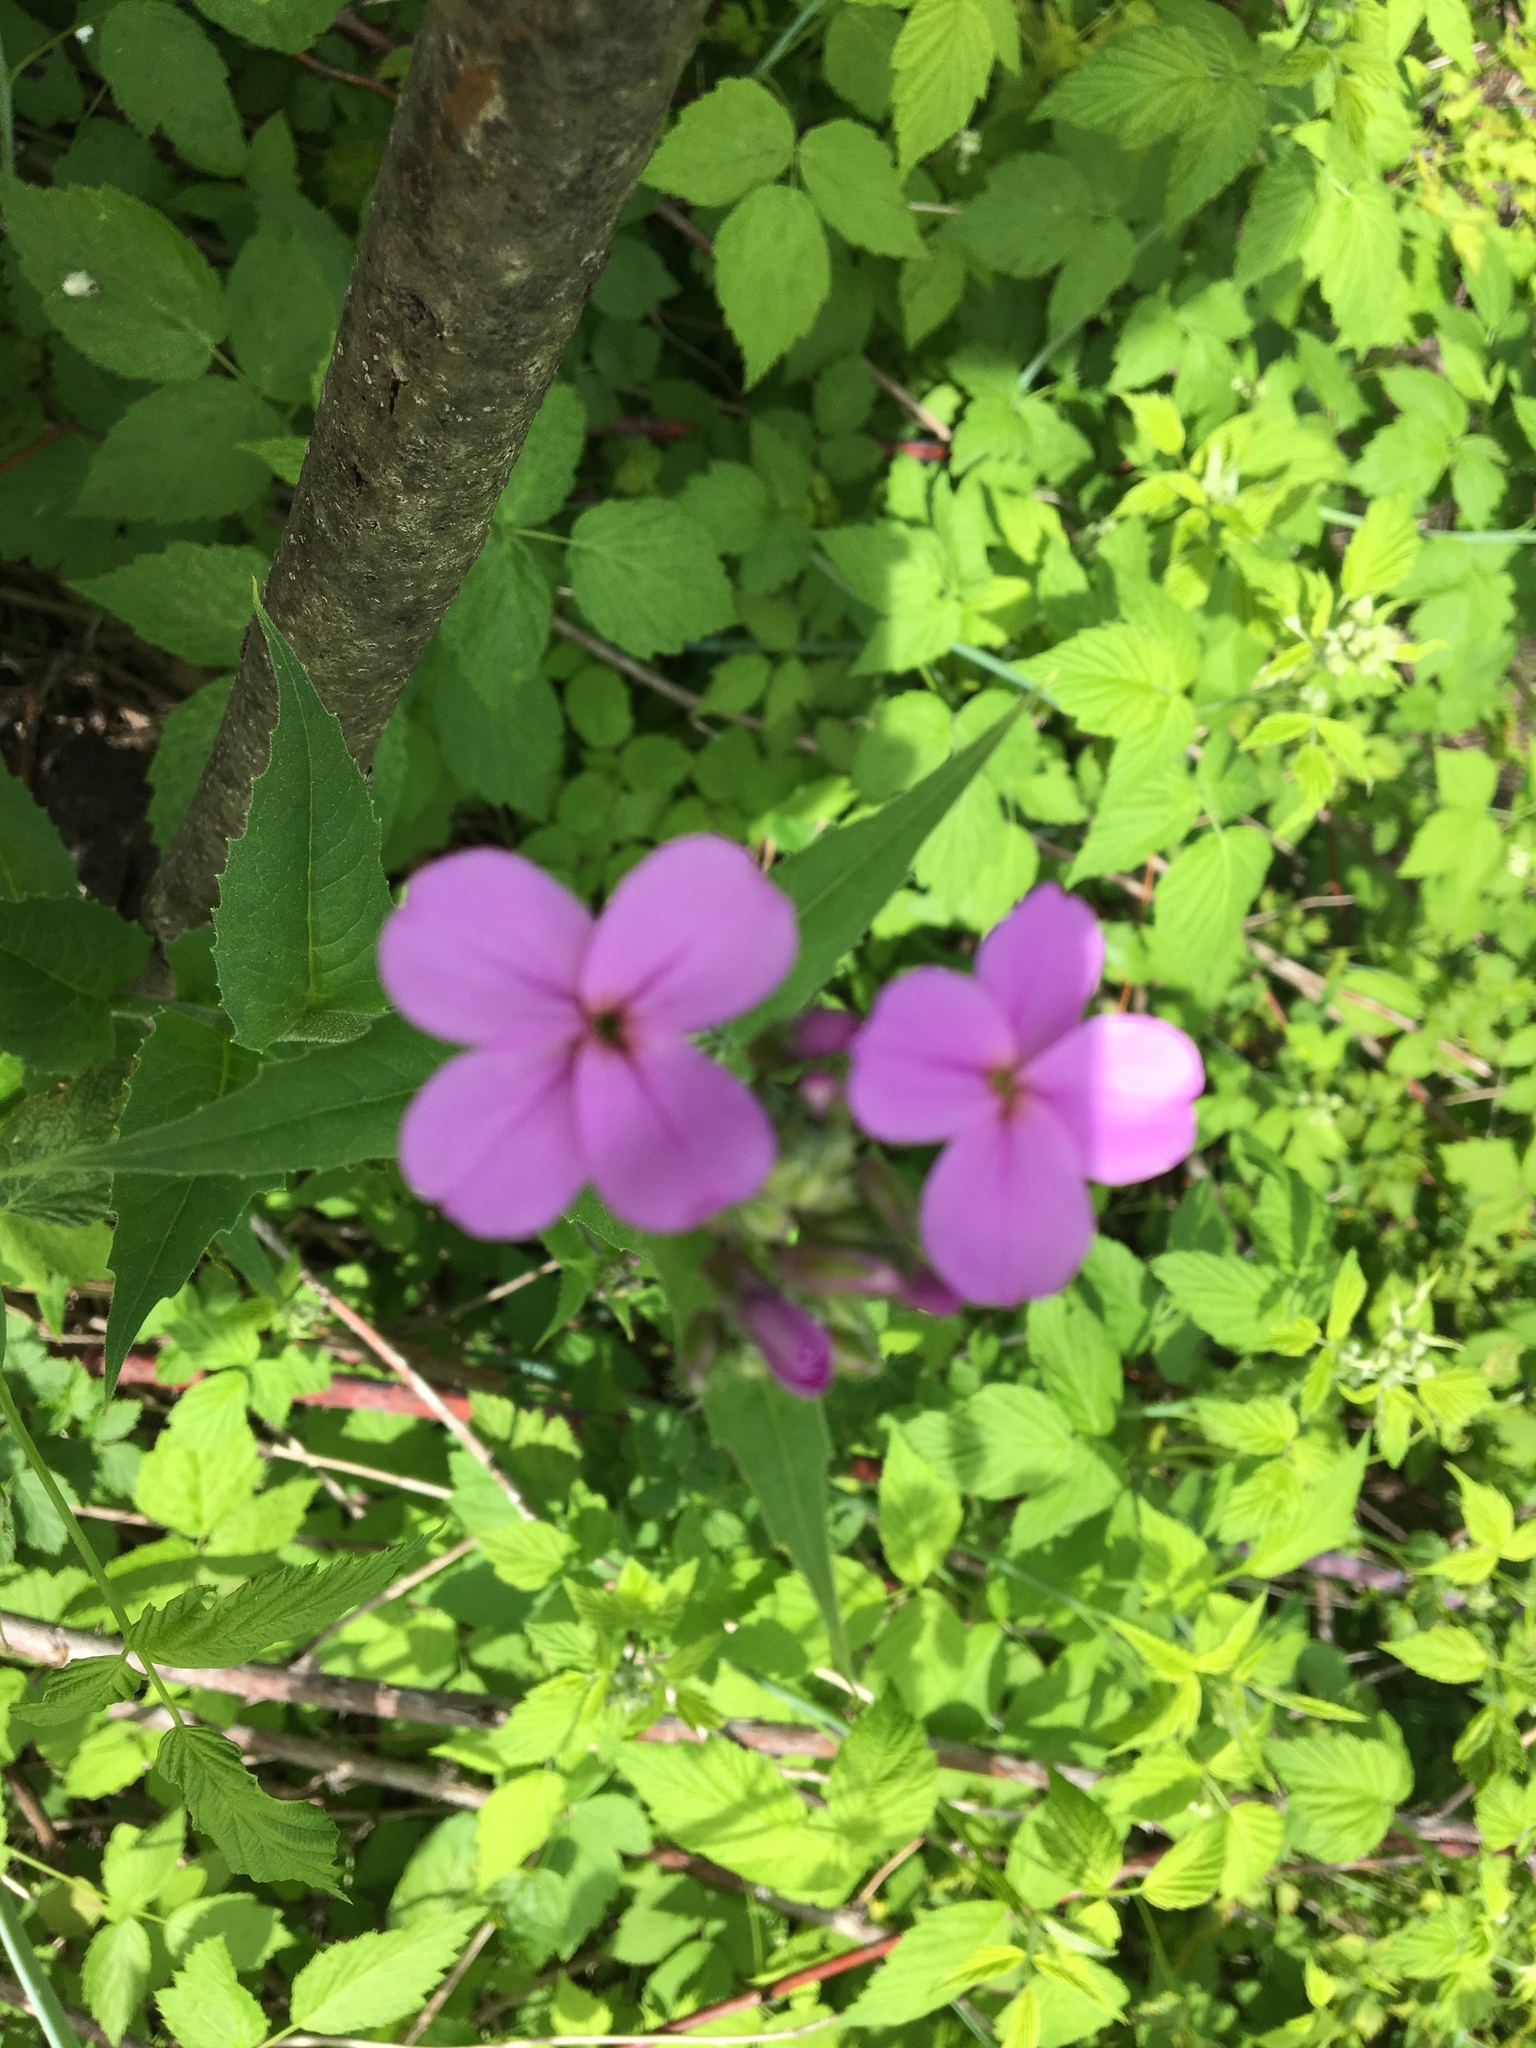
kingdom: Plantae
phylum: Tracheophyta
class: Magnoliopsida
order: Brassicales
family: Brassicaceae
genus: Hesperis
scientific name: Hesperis matronalis
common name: Dame's-violet
